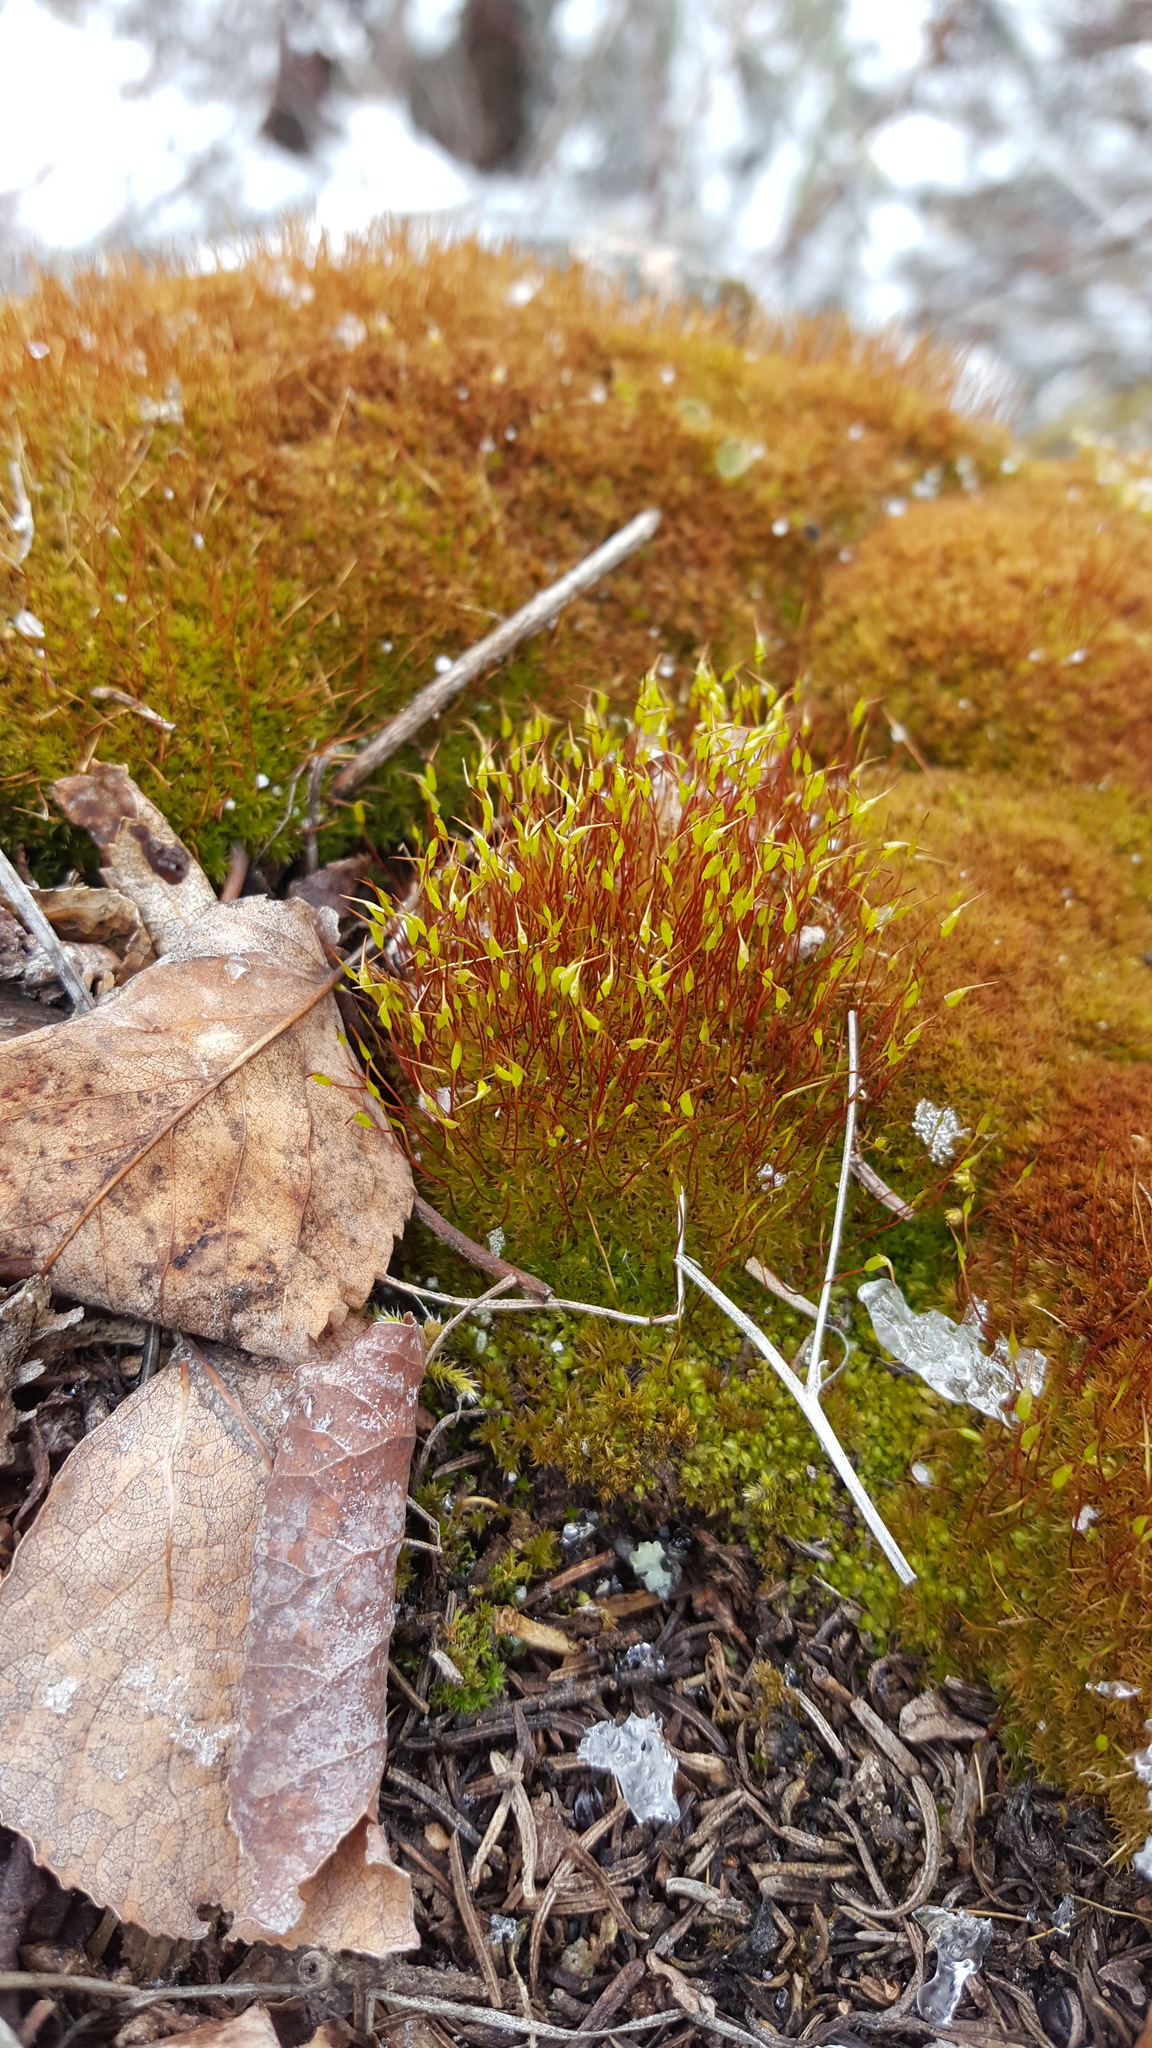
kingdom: Plantae
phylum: Bryophyta
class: Bryopsida
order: Dicranales
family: Ditrichaceae
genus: Ceratodon
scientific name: Ceratodon purpureus
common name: Redshank
